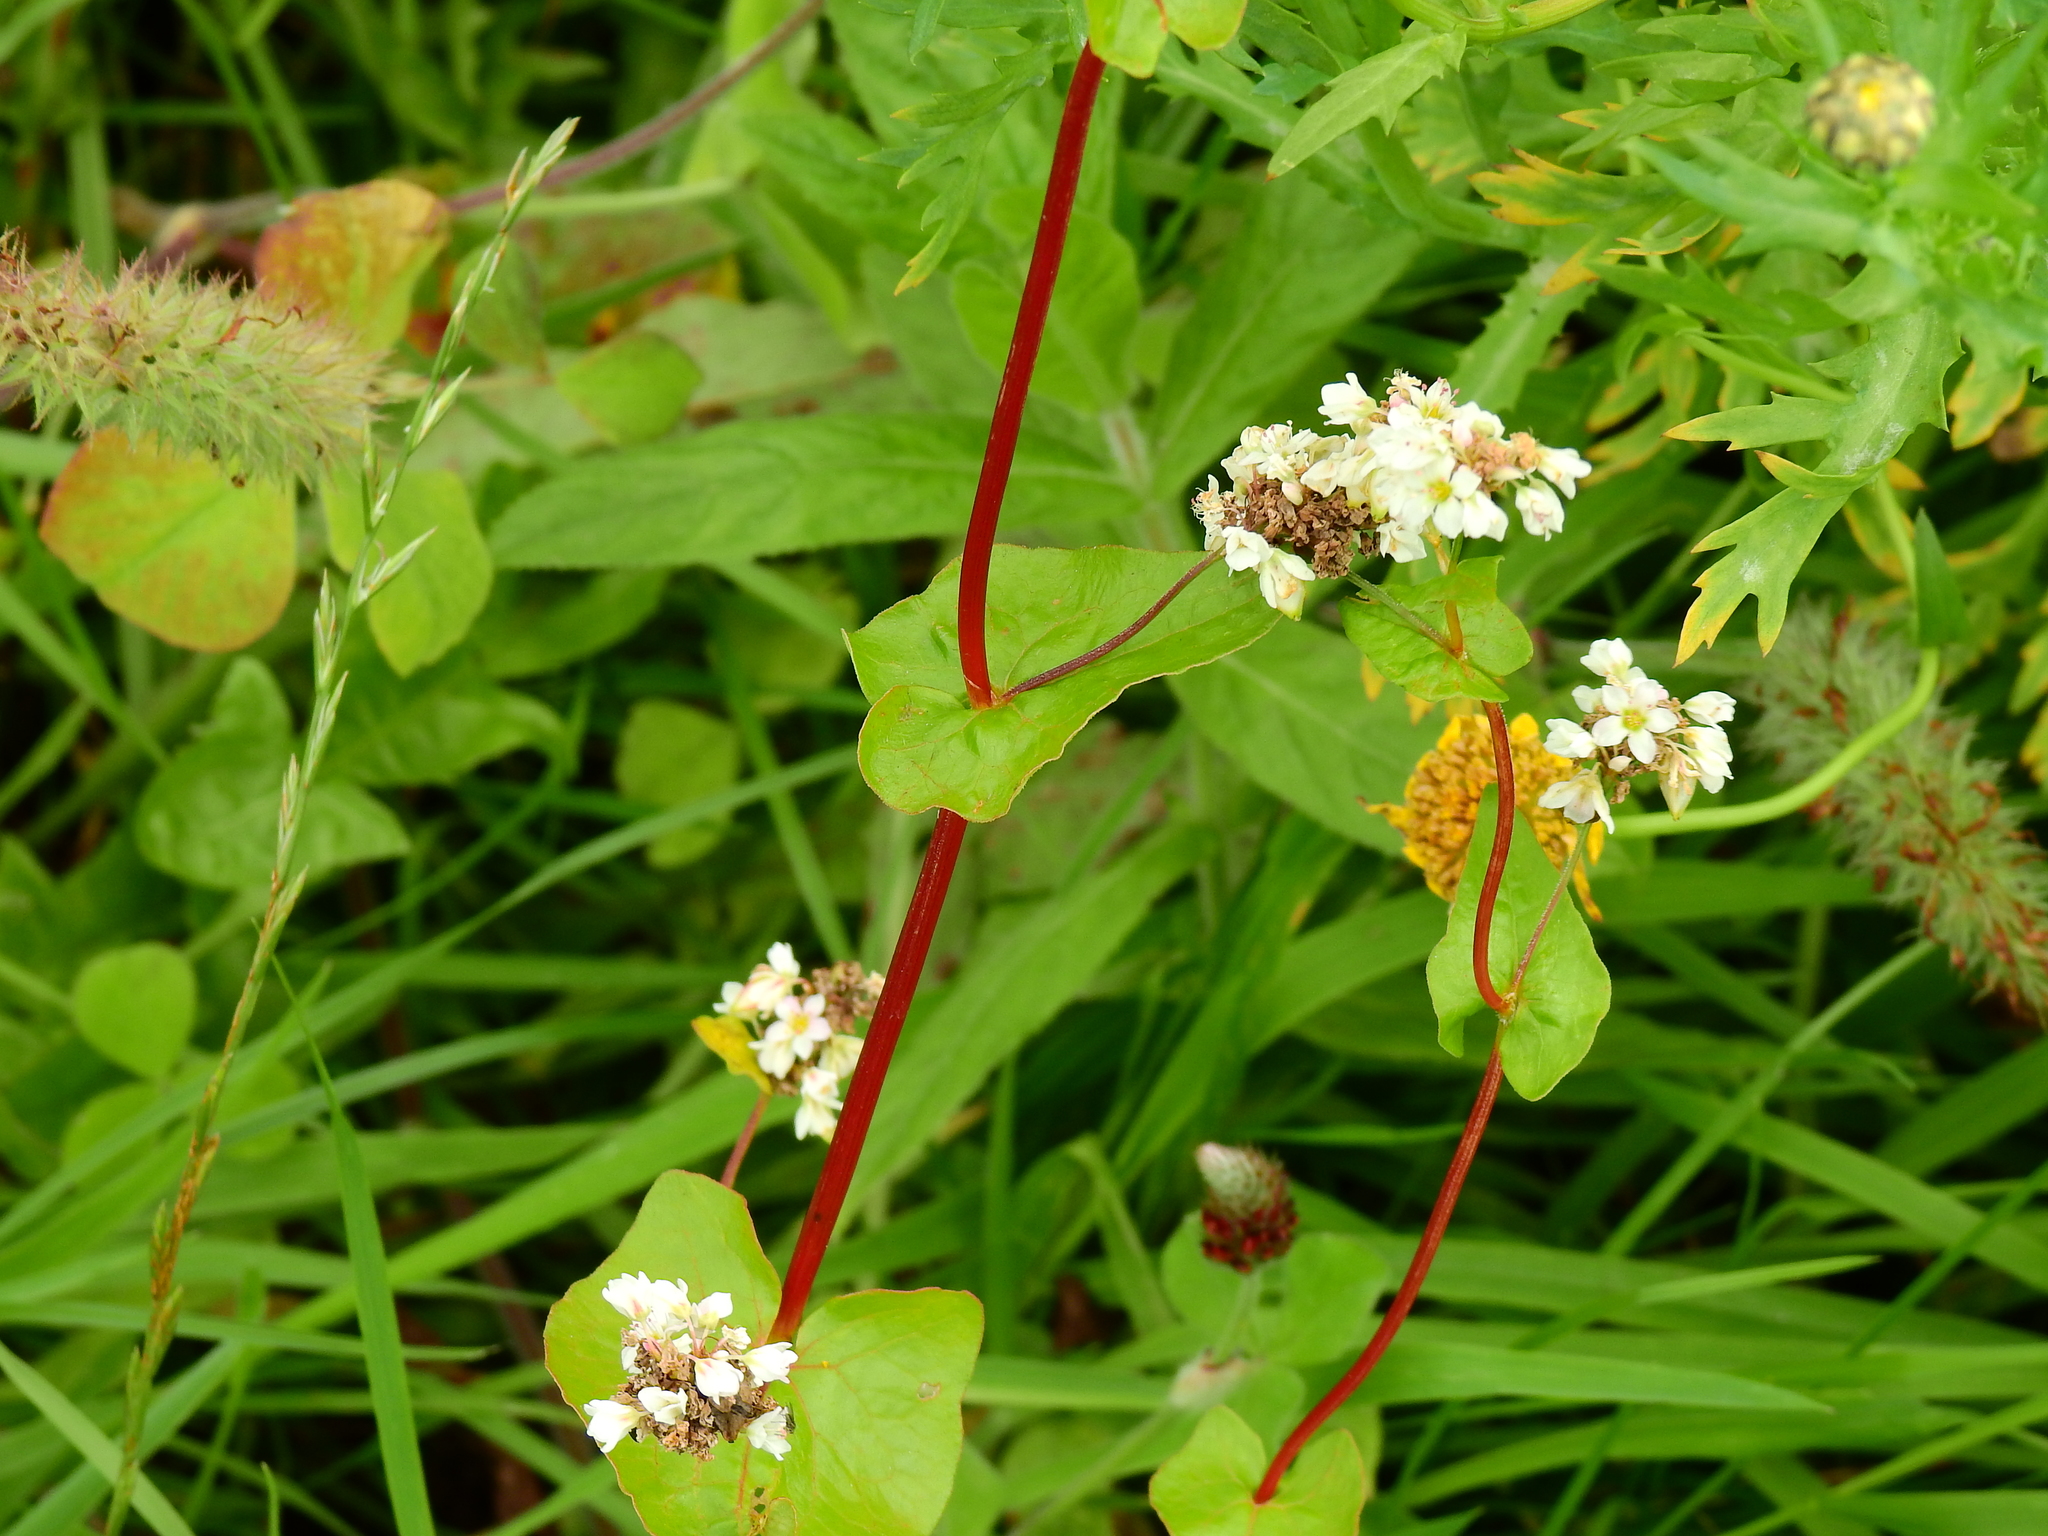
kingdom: Plantae
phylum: Tracheophyta
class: Magnoliopsida
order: Caryophyllales
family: Polygonaceae
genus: Fagopyrum
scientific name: Fagopyrum esculentum
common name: Buckwheat
